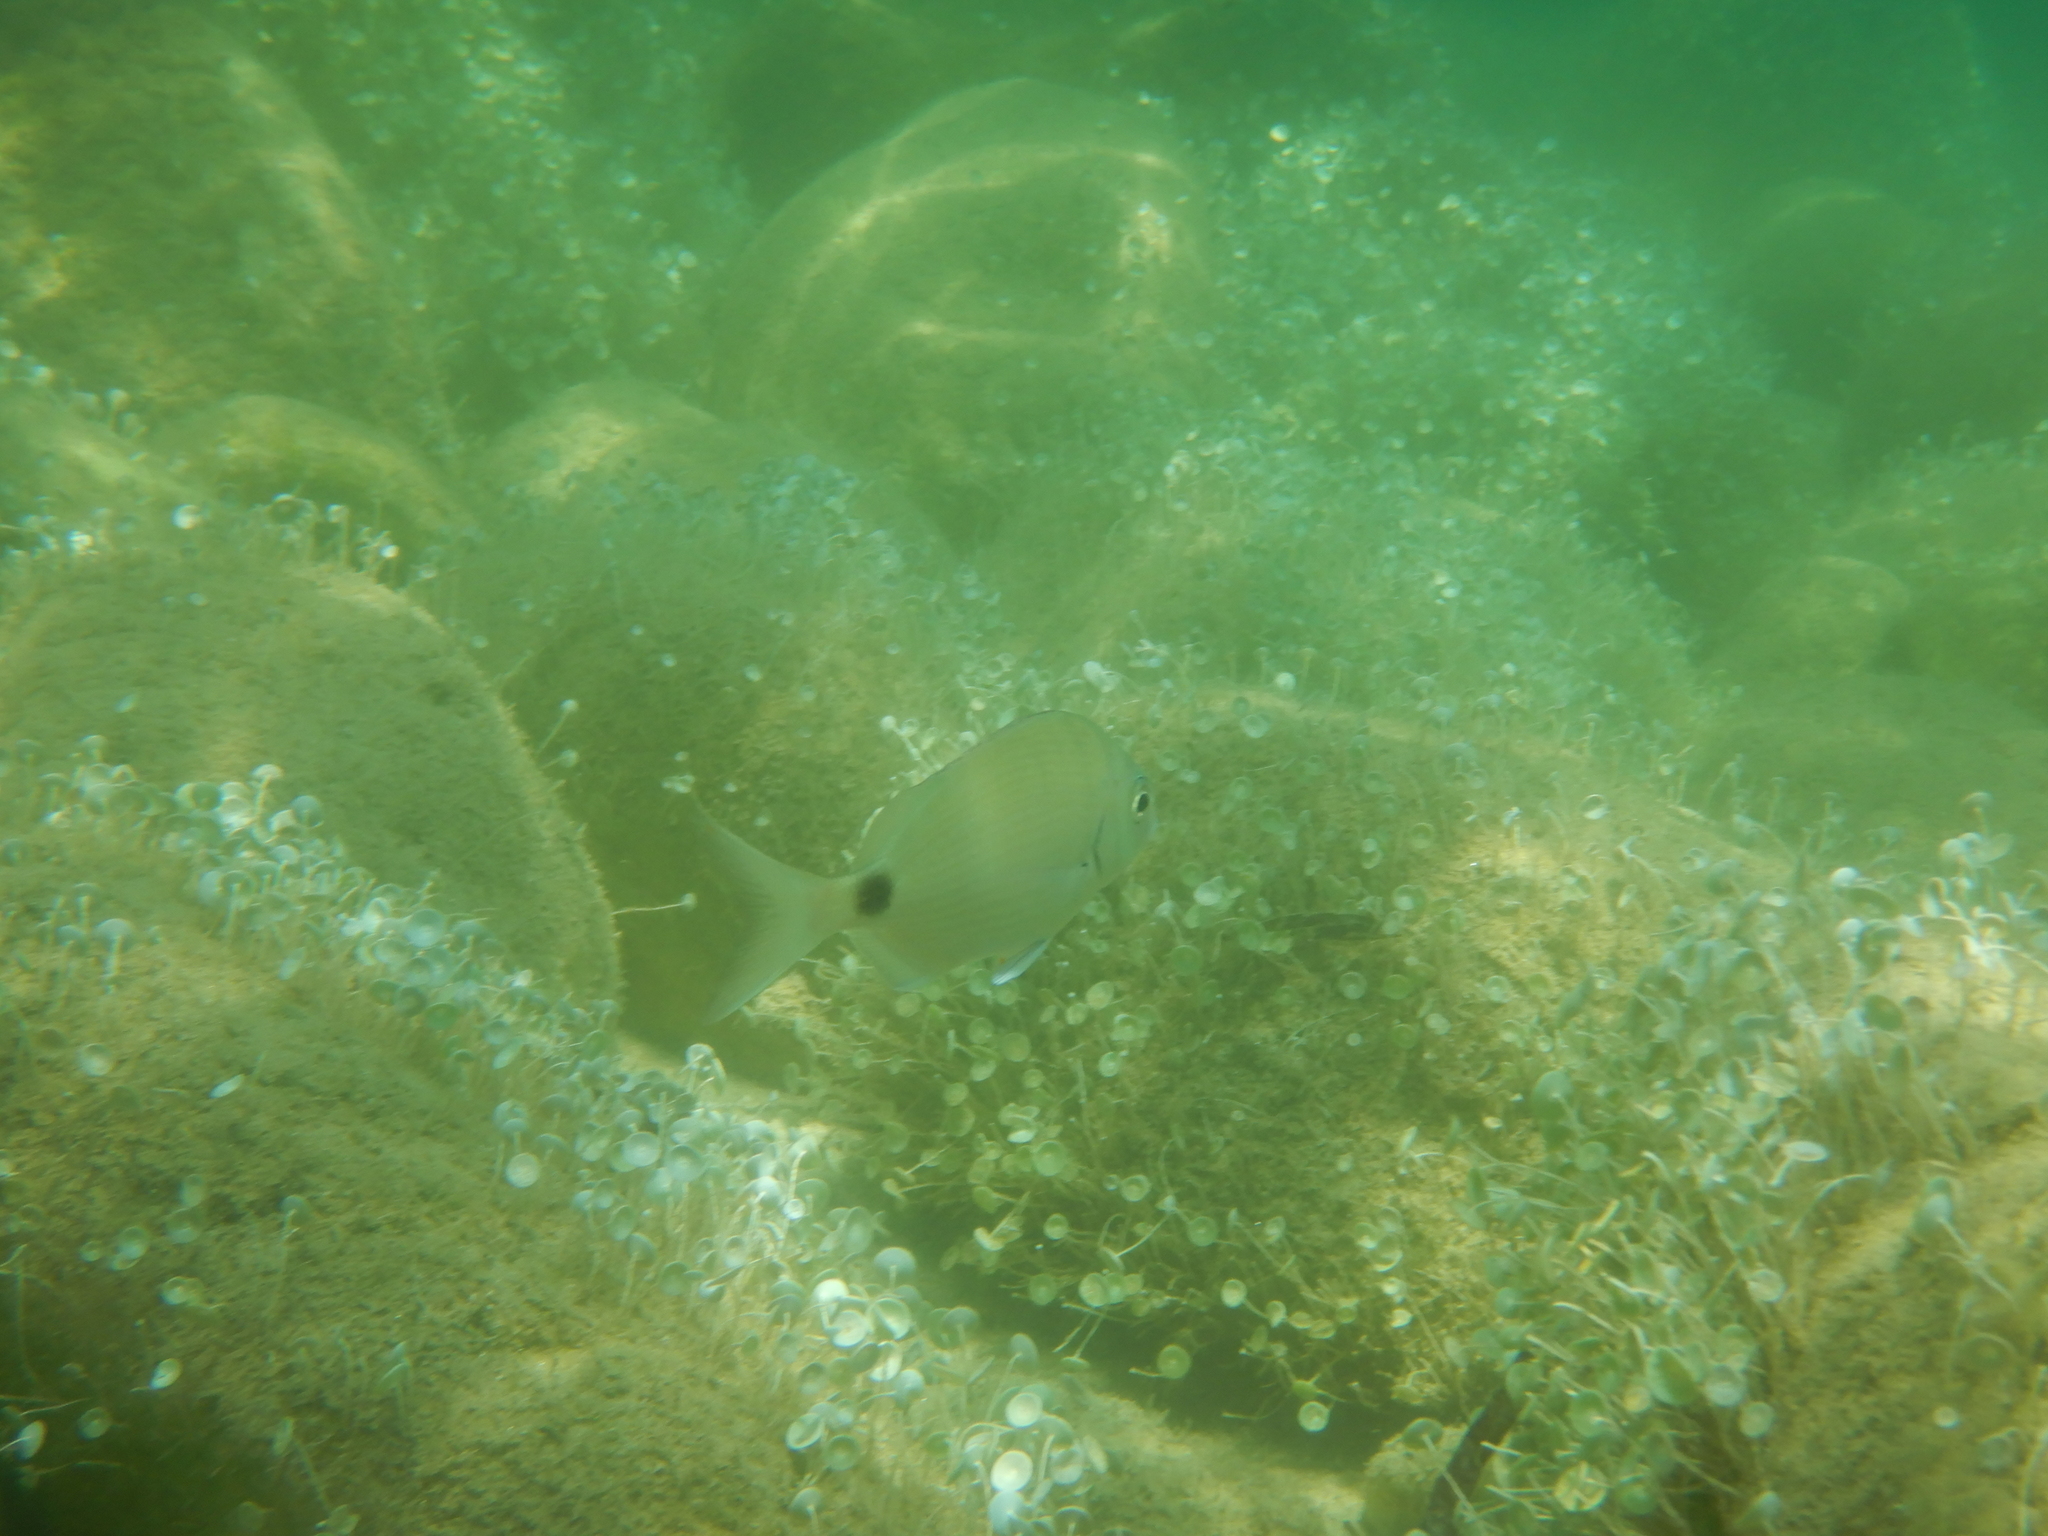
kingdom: Animalia
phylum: Chordata
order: Perciformes
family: Sparidae
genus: Diplodus
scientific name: Diplodus sargus
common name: White seabream
